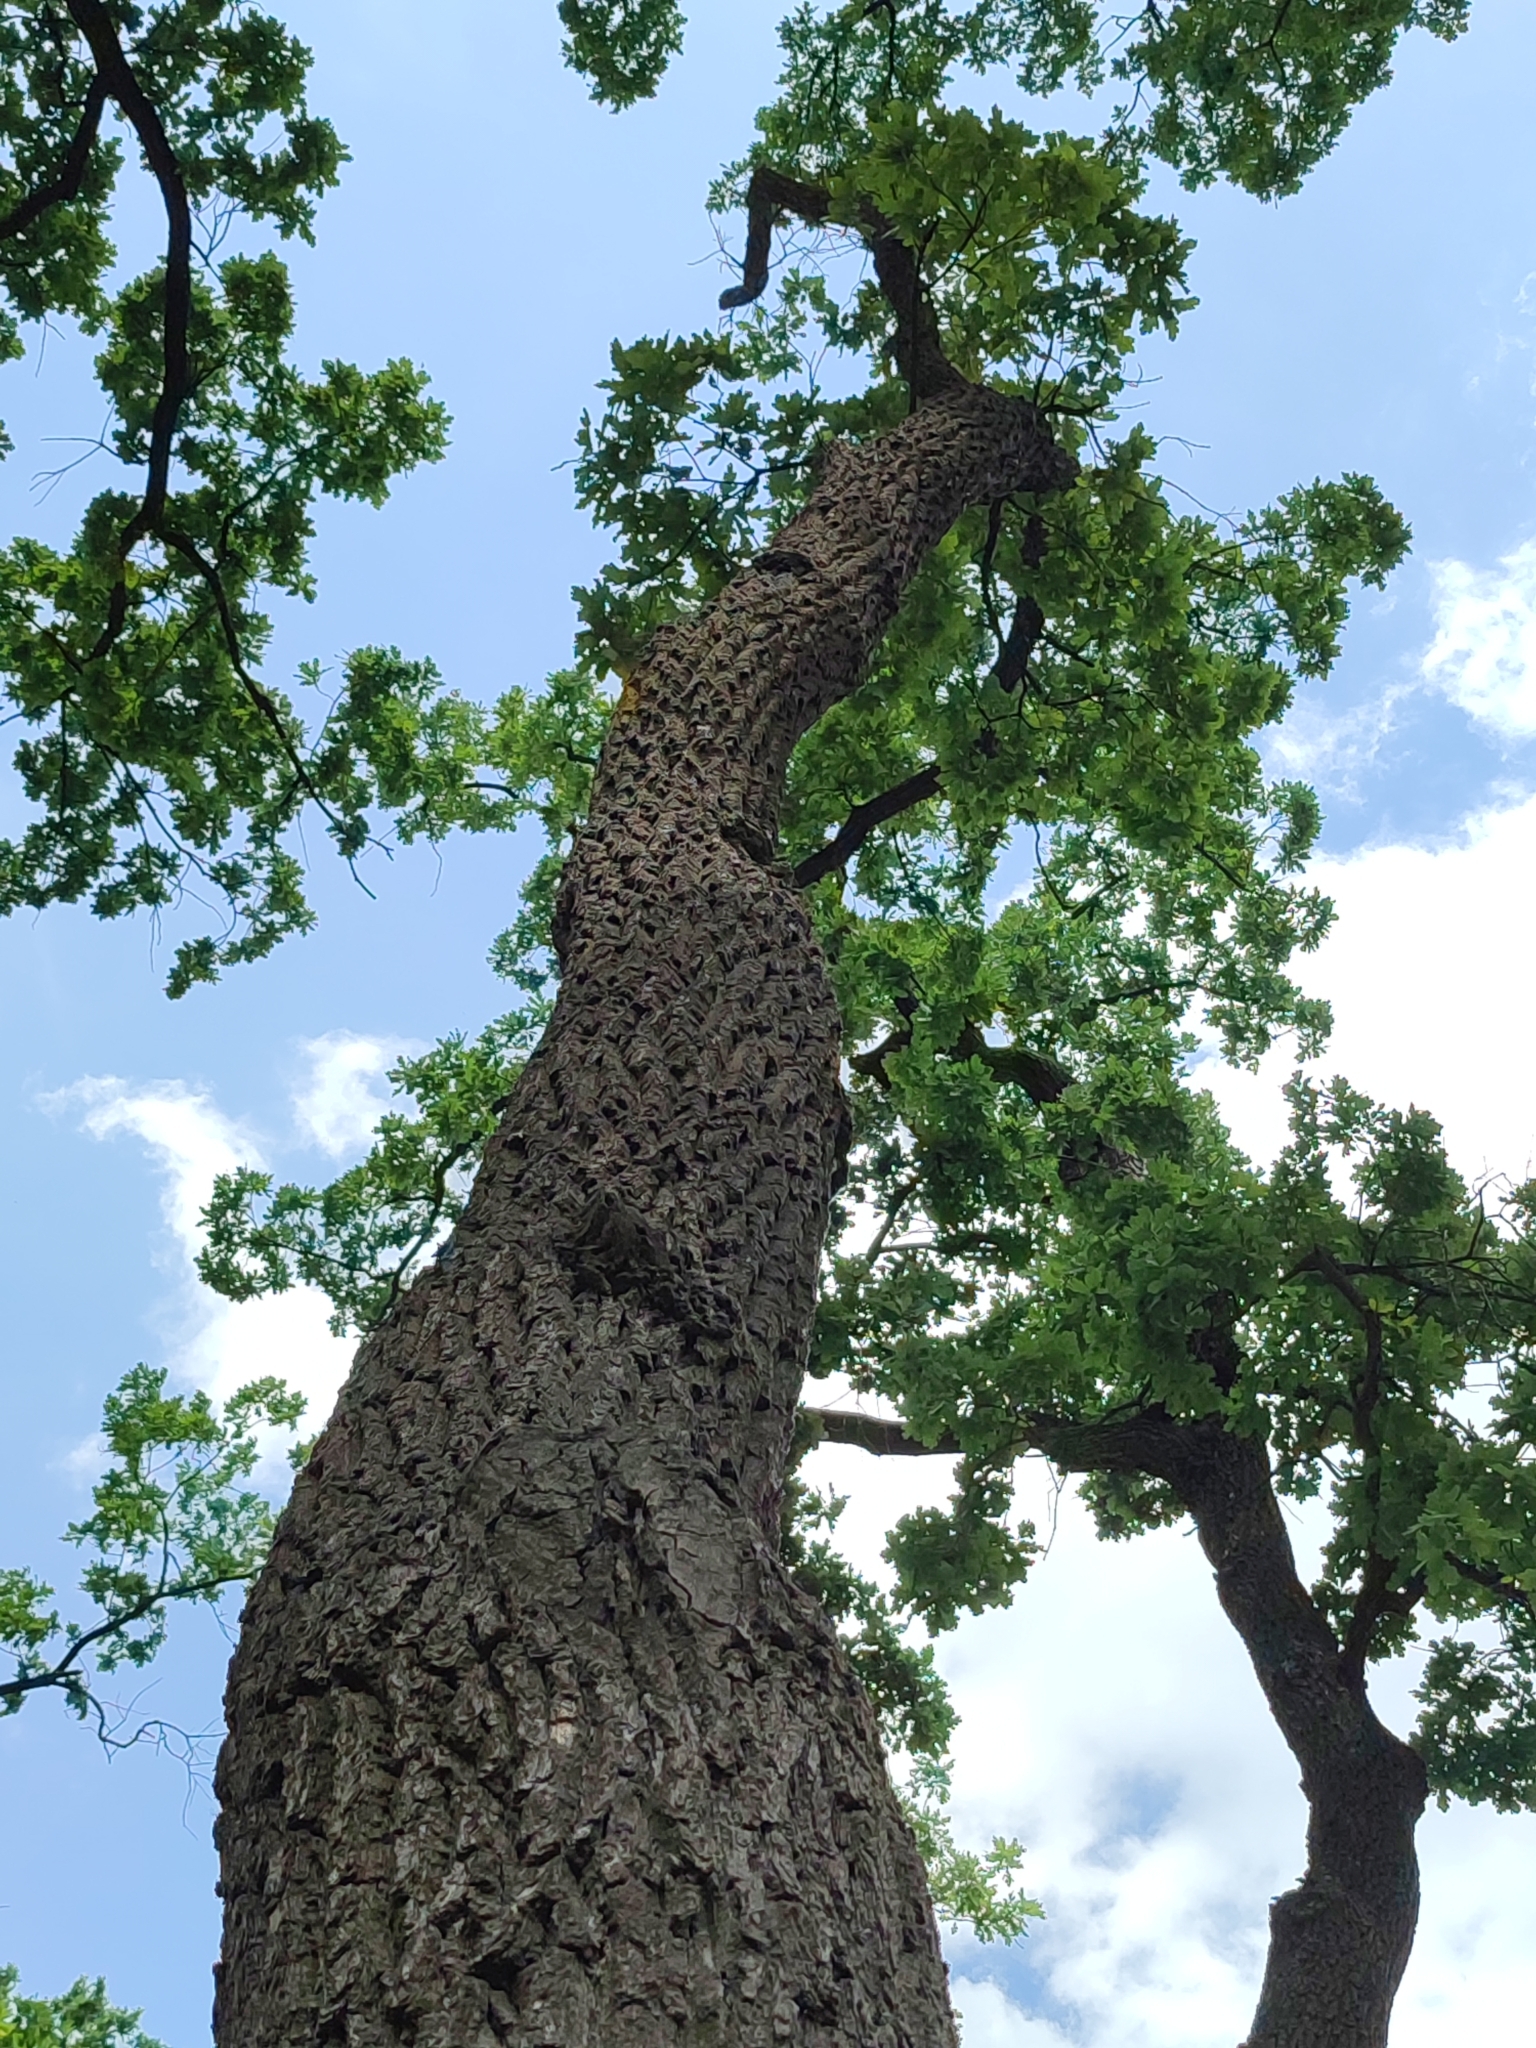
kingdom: Plantae
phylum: Tracheophyta
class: Magnoliopsida
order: Fagales
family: Fagaceae
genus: Quercus
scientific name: Quercus robur
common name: Pedunculate oak
